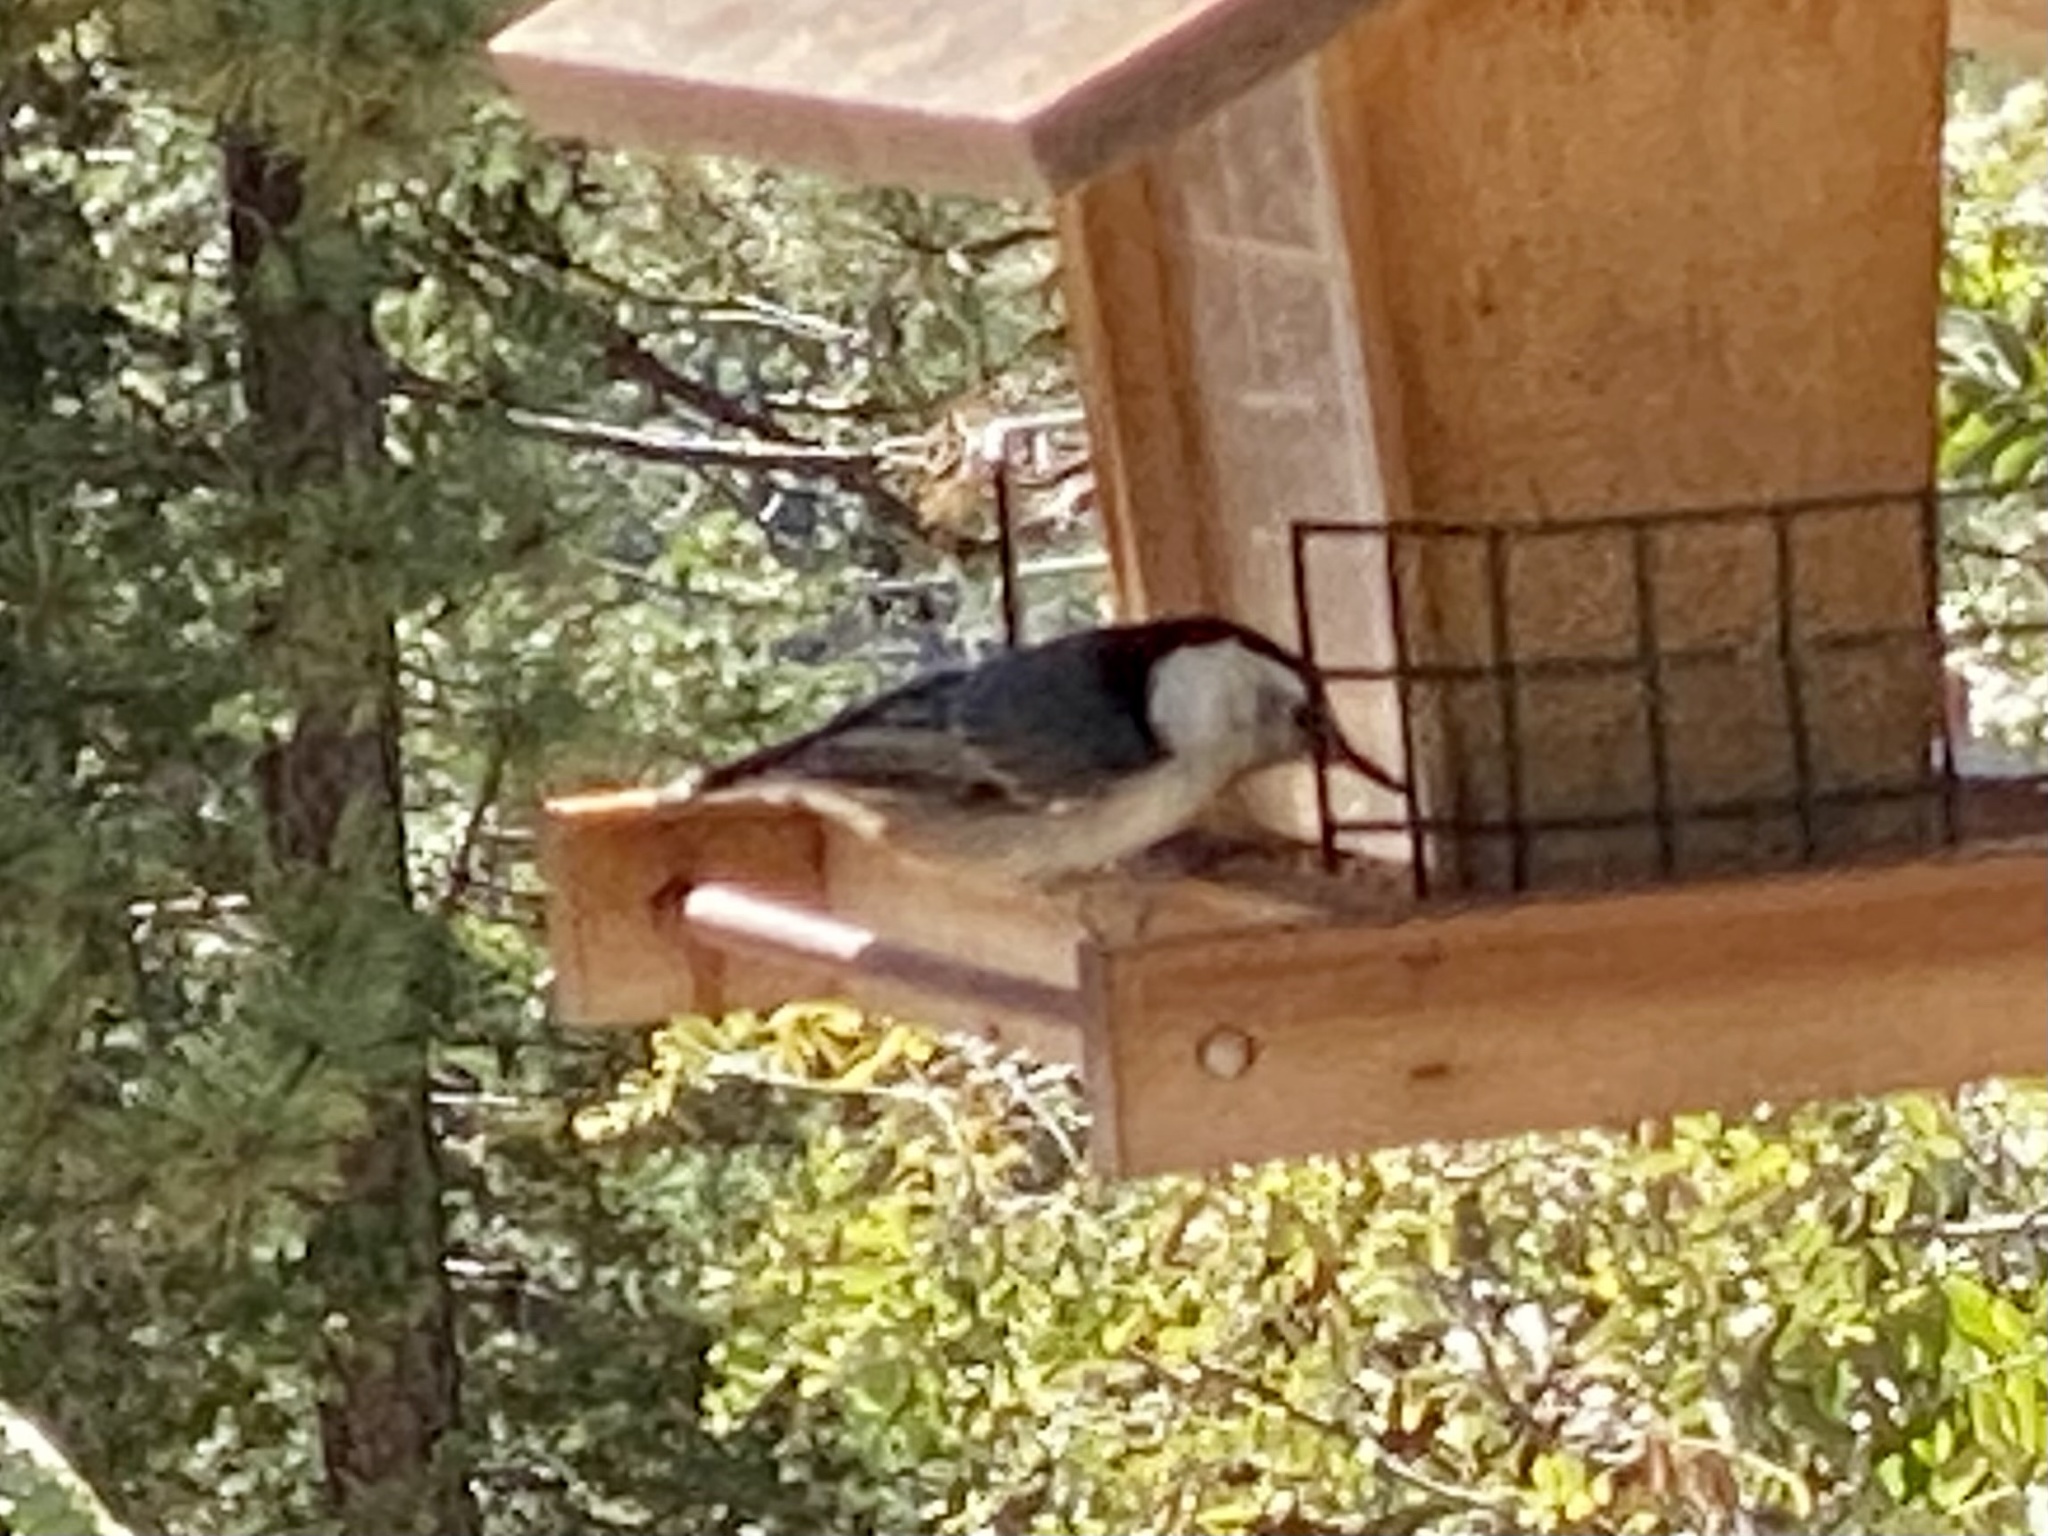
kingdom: Animalia
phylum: Chordata
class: Aves
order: Passeriformes
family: Sittidae
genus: Sitta
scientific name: Sitta carolinensis
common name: White-breasted nuthatch
